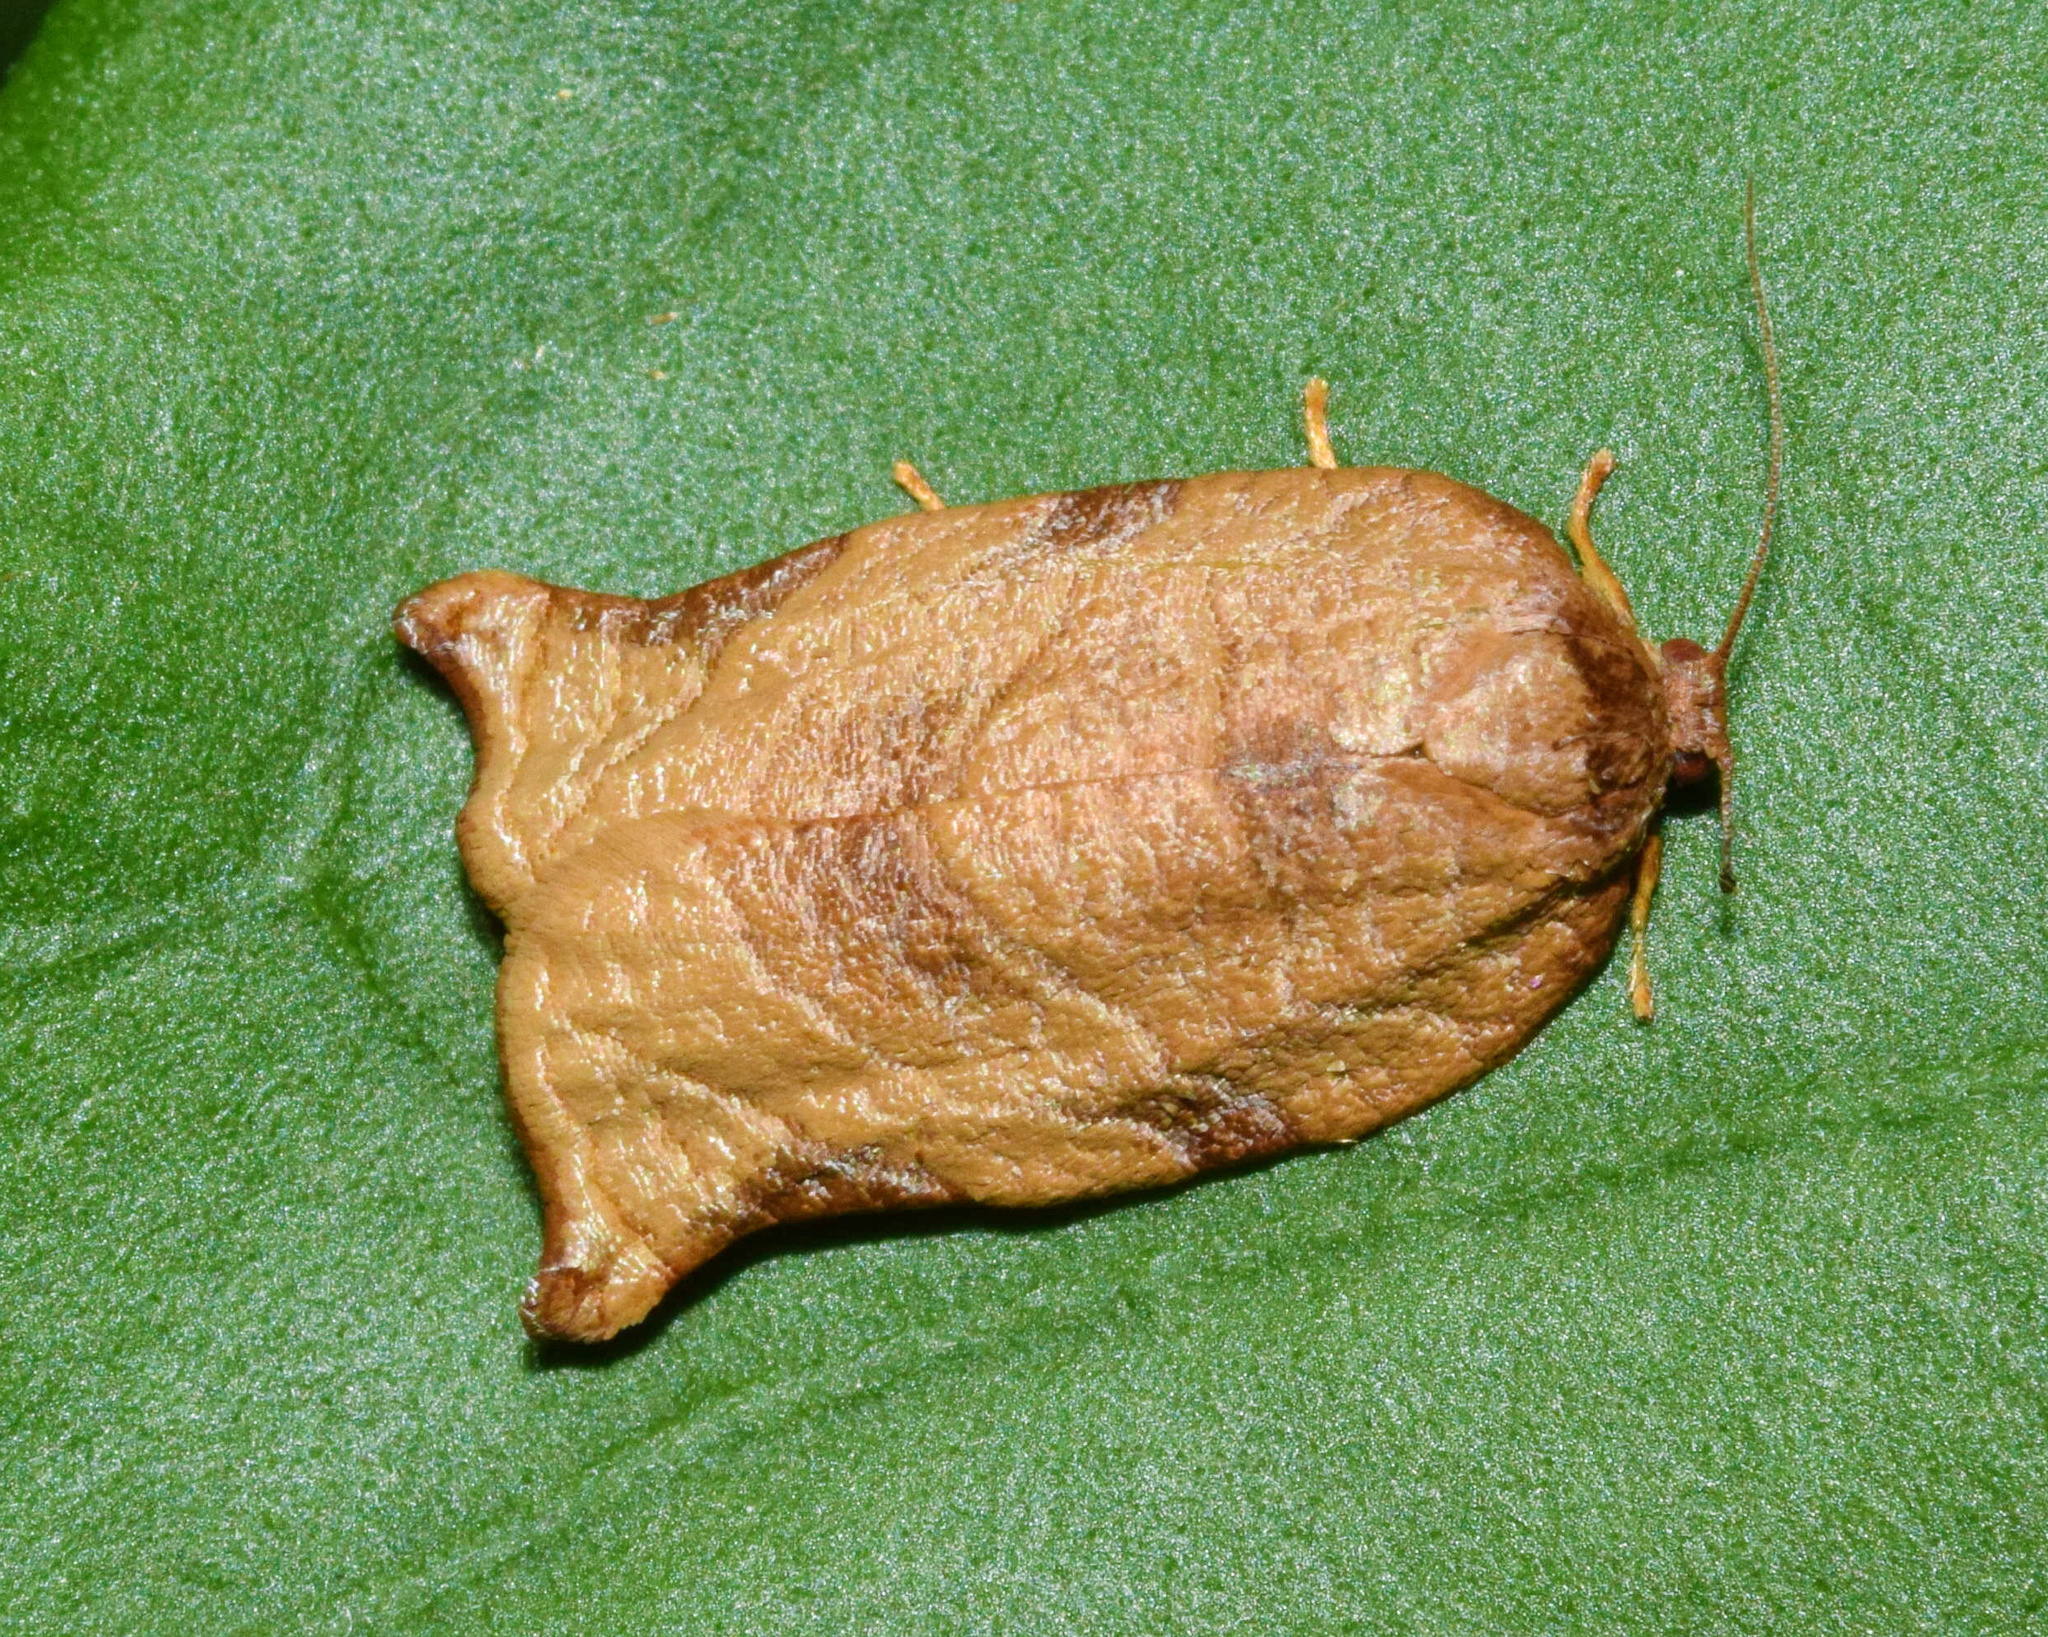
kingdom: Animalia
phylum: Arthropoda
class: Insecta
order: Lepidoptera
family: Tortricidae
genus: Choristoneura
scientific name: Choristoneura heliaspis
